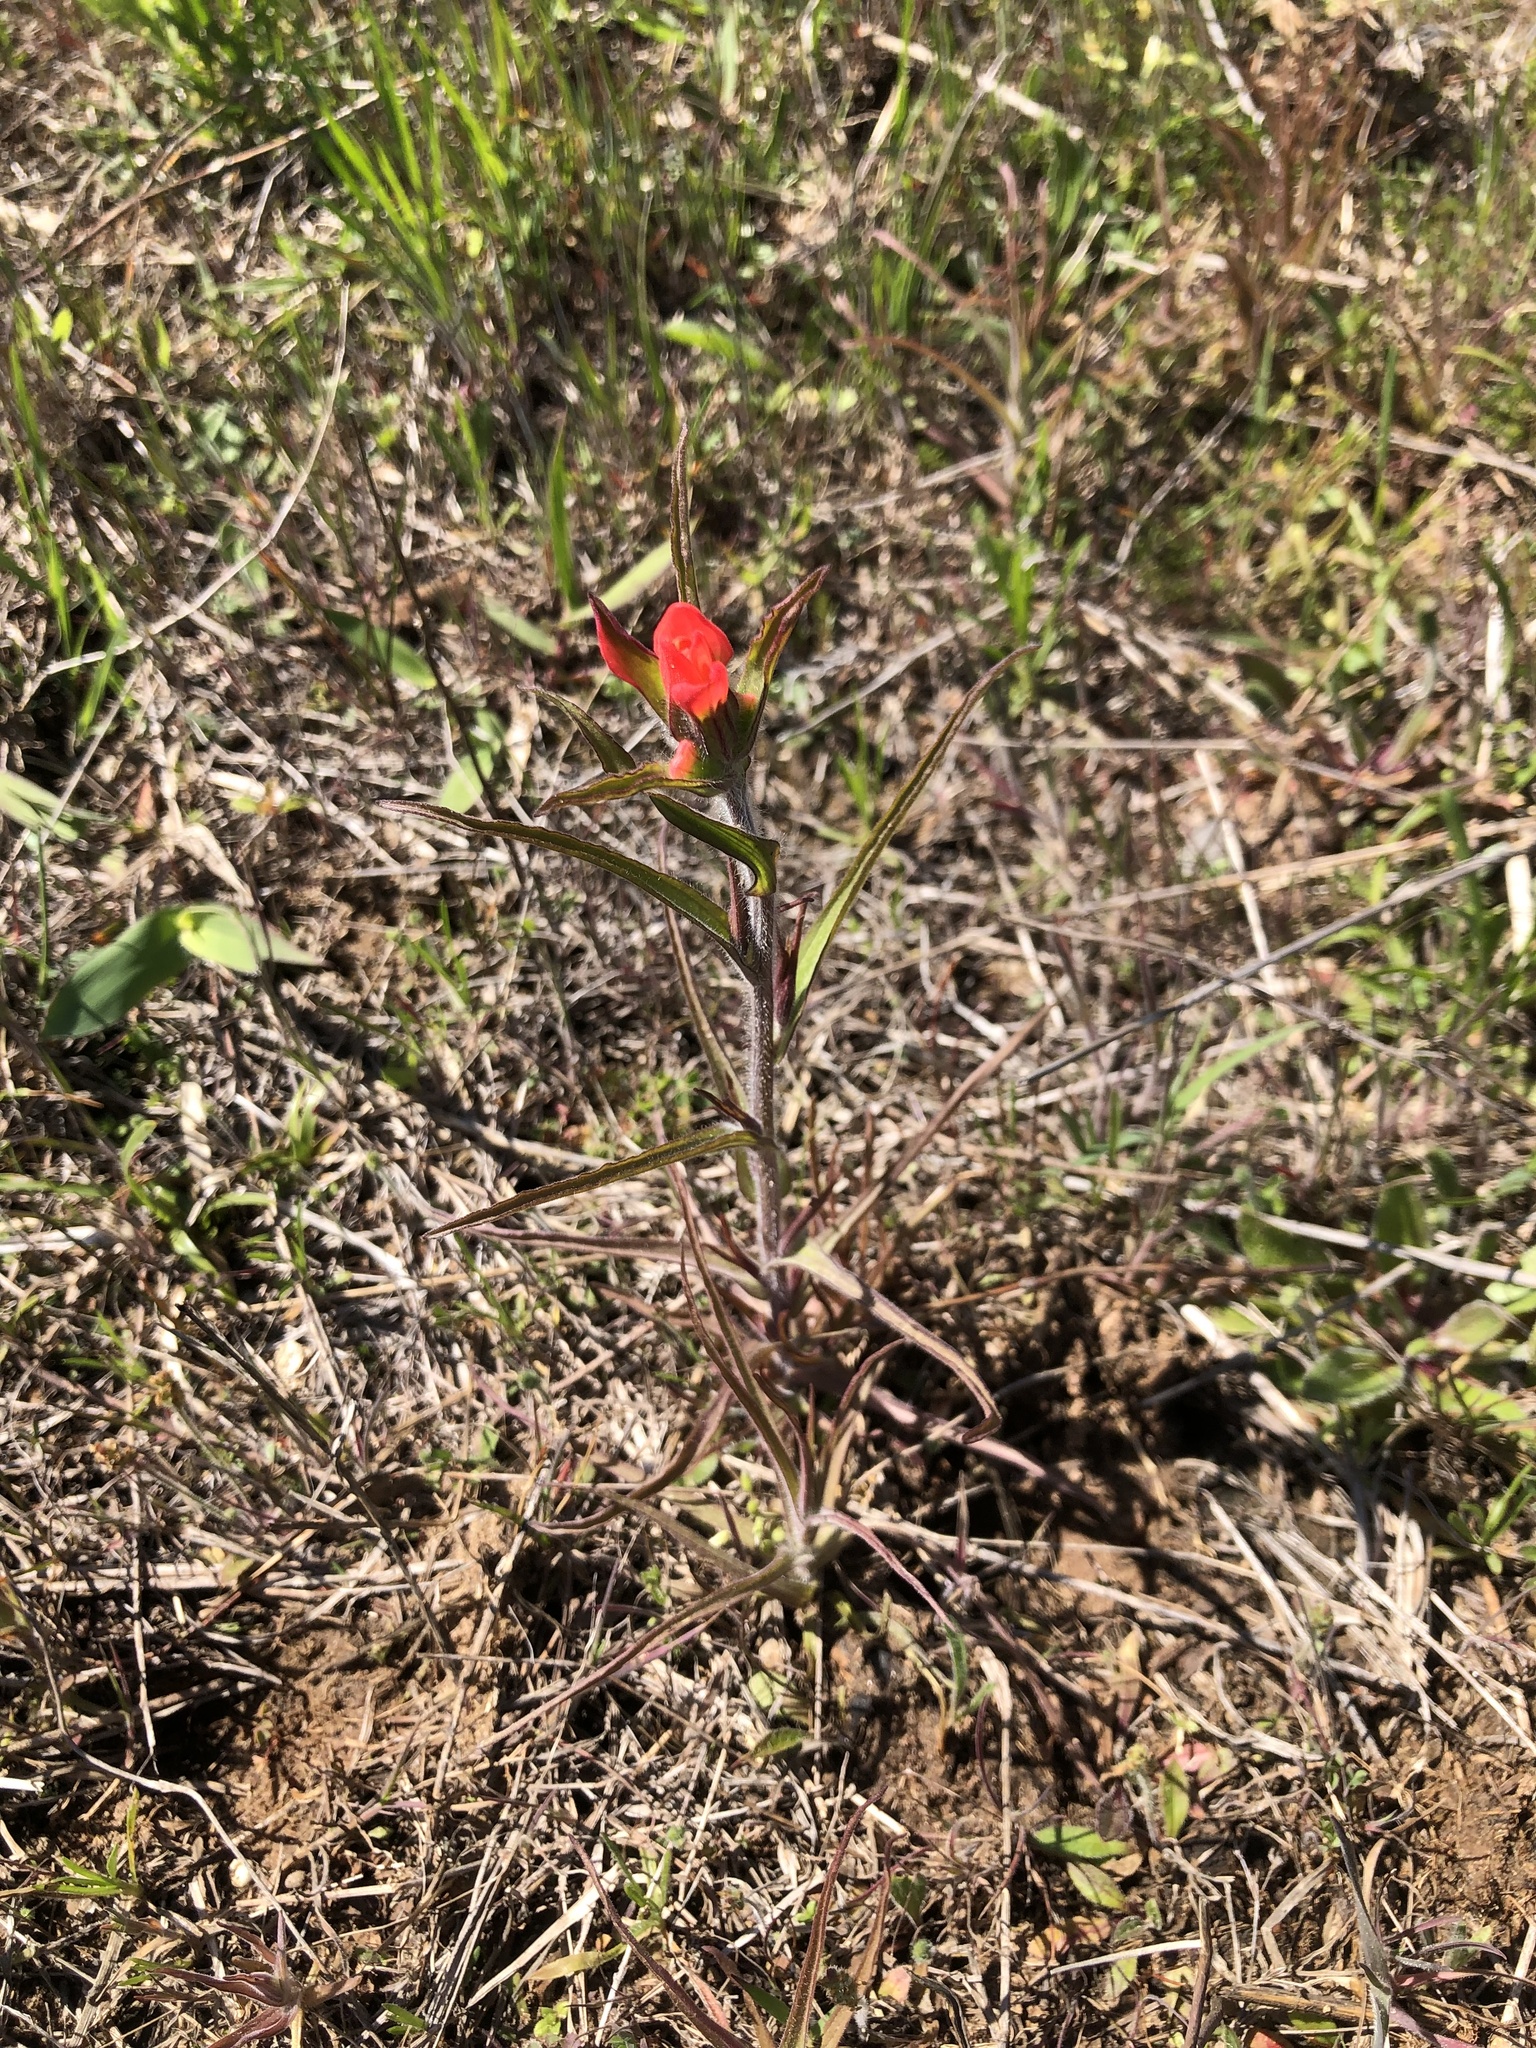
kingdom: Plantae
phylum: Tracheophyta
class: Magnoliopsida
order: Lamiales
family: Orobanchaceae
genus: Castilleja
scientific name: Castilleja indivisa
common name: Texas paintbrush
